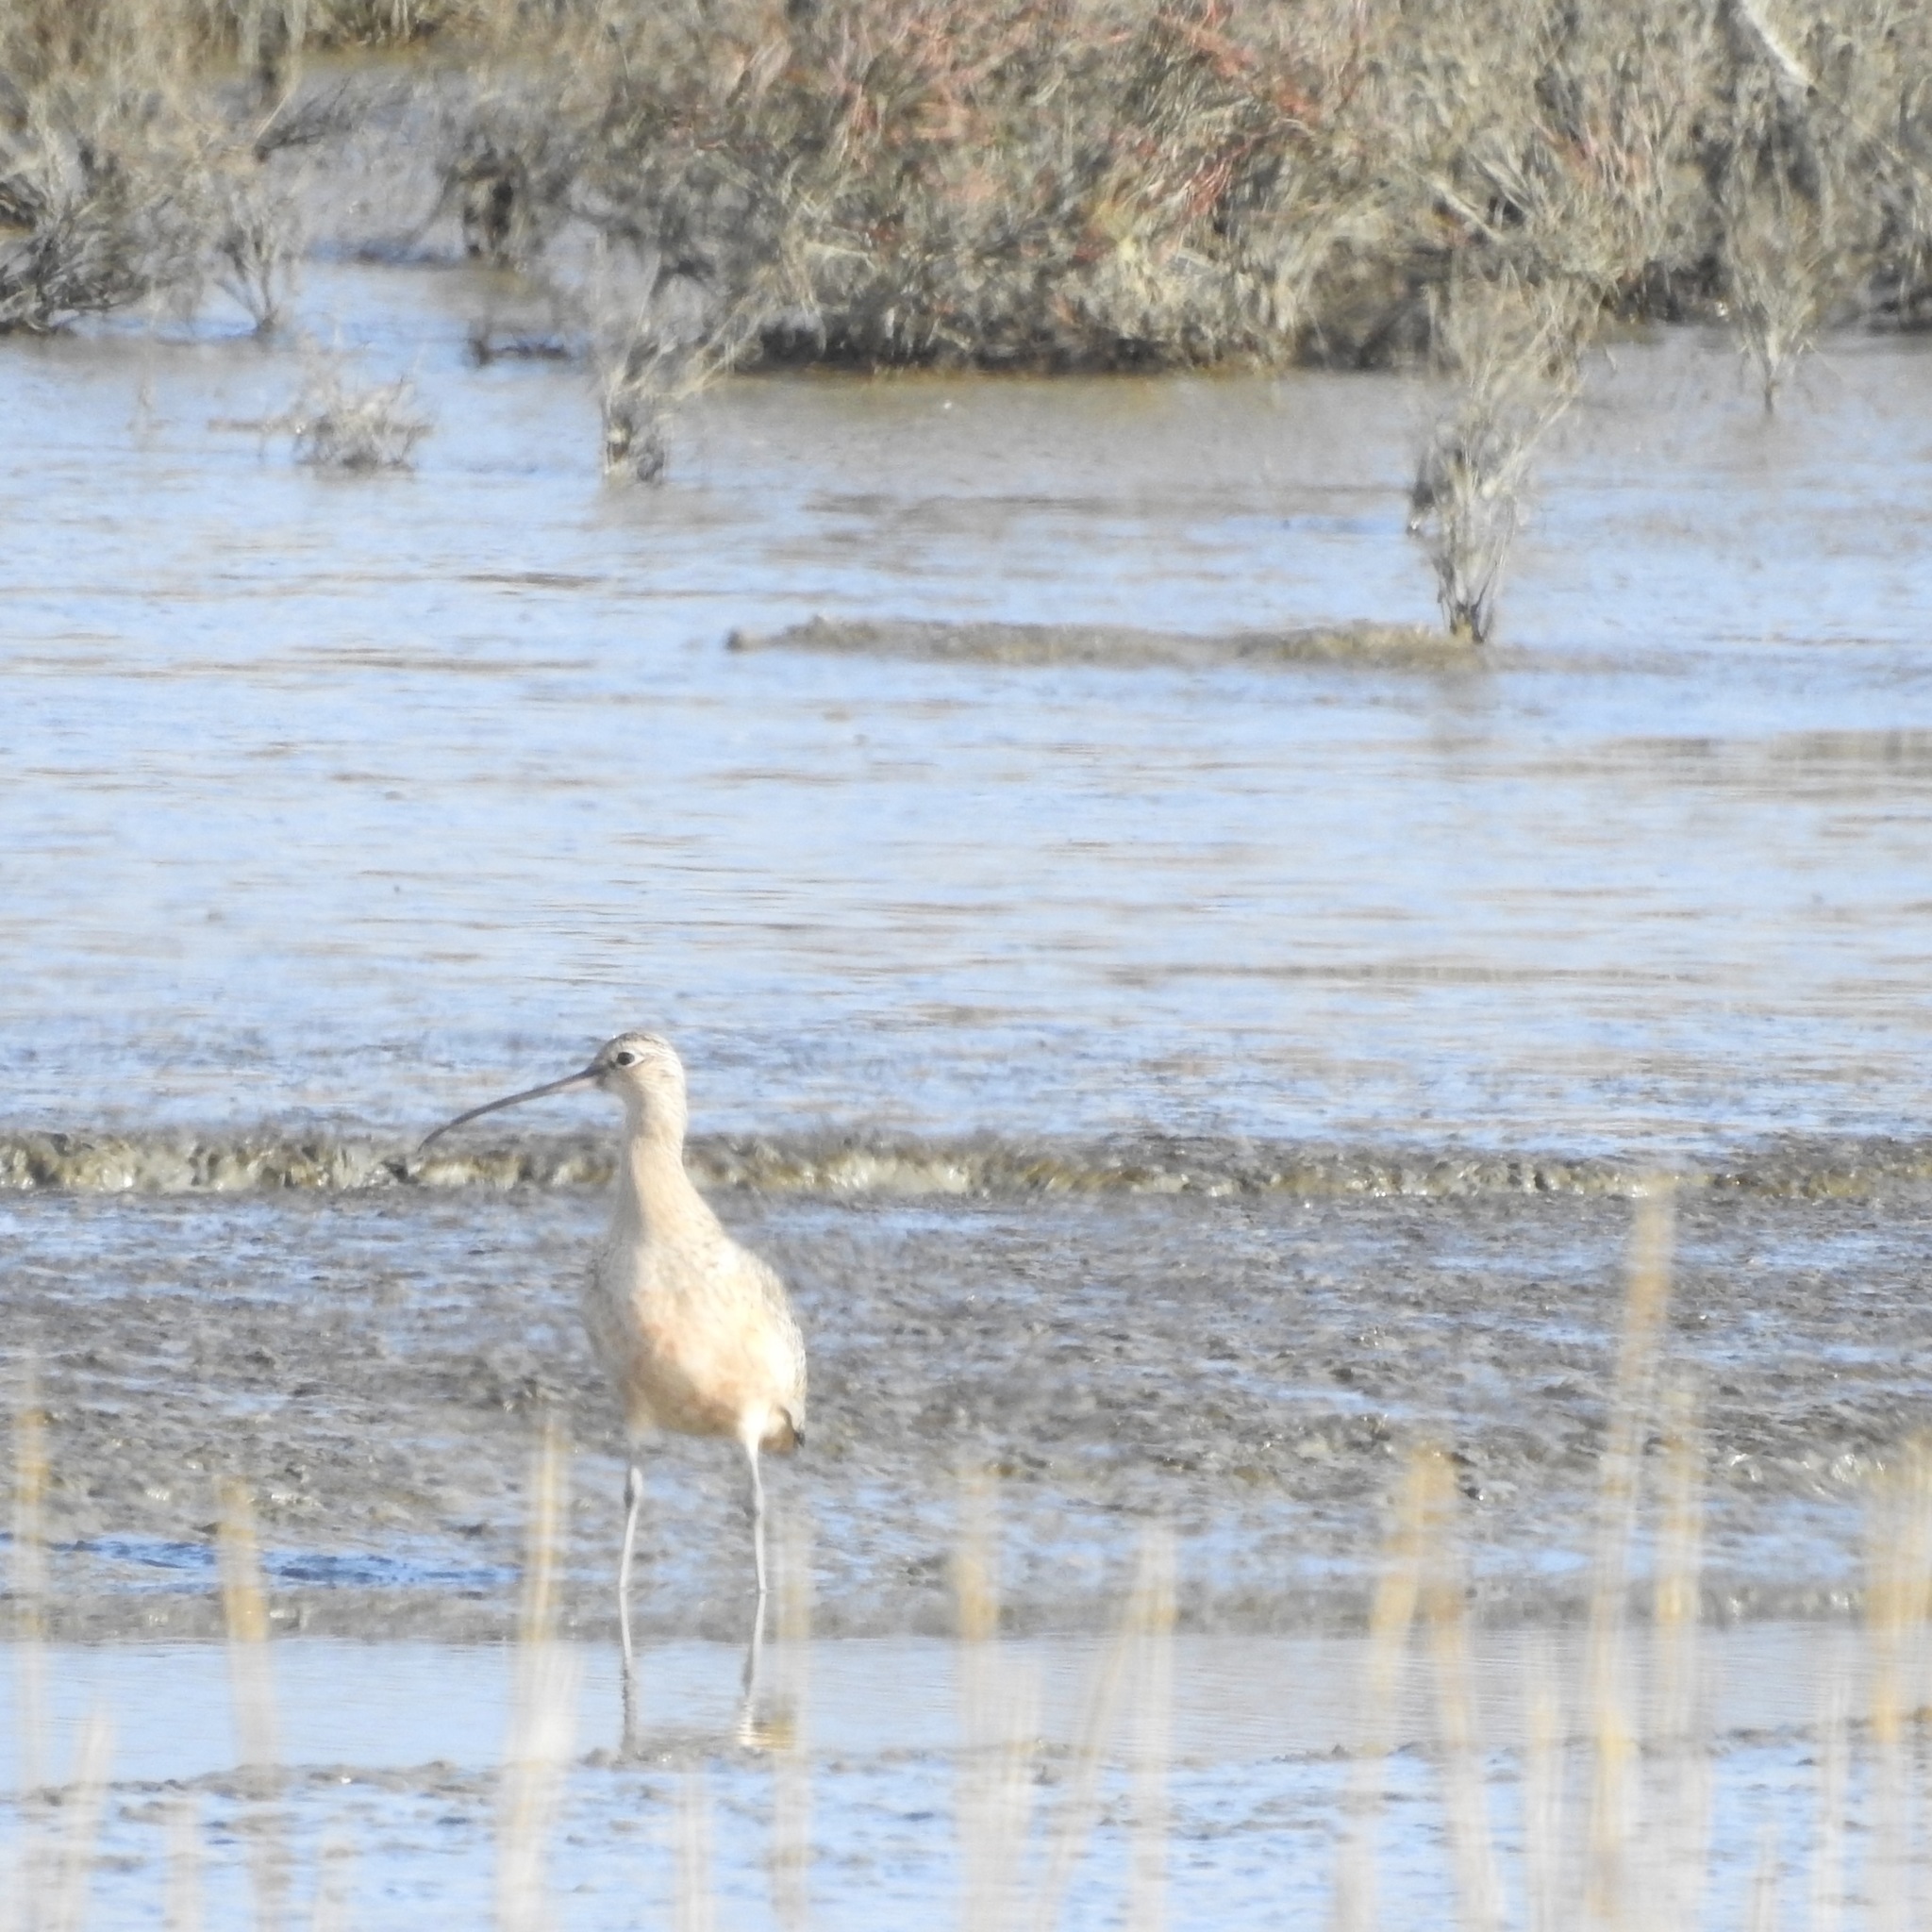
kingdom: Animalia
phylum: Chordata
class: Aves
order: Charadriiformes
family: Scolopacidae
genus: Numenius
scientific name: Numenius americanus
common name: Long-billed curlew
